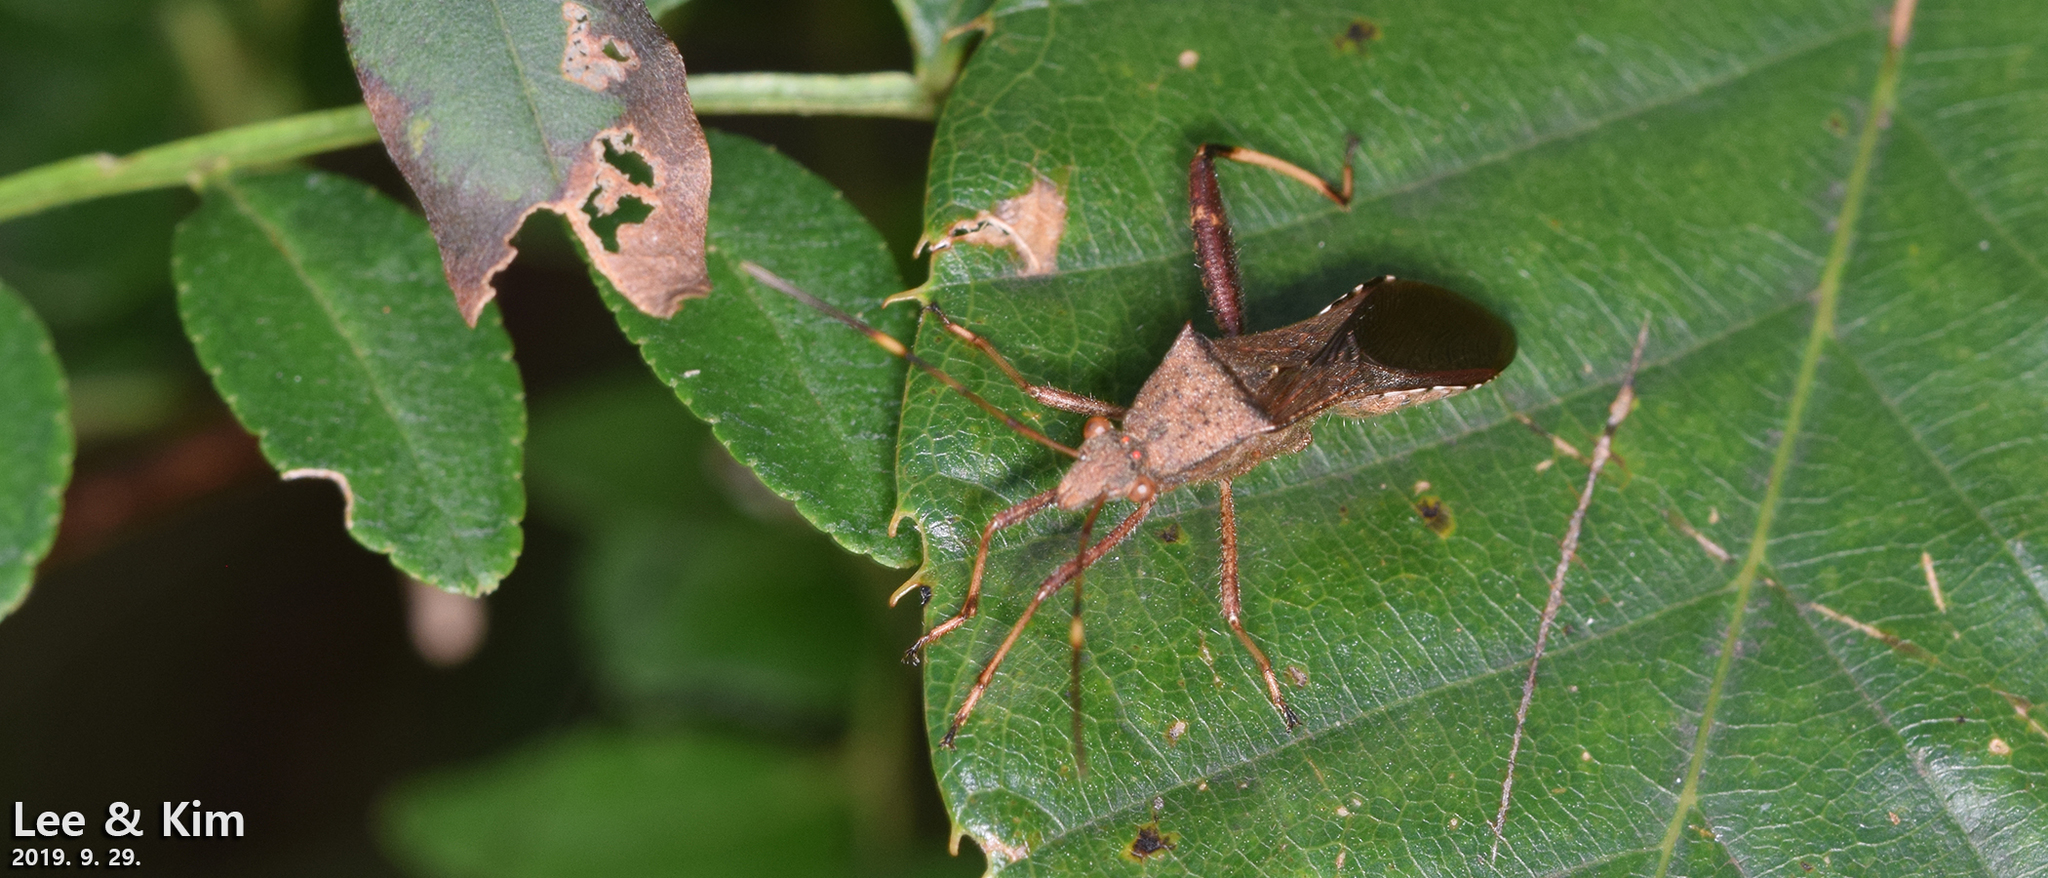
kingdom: Animalia
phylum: Arthropoda
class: Insecta
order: Hemiptera
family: Alydidae
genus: Riptortus
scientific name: Riptortus pedestris
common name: Bean bug
